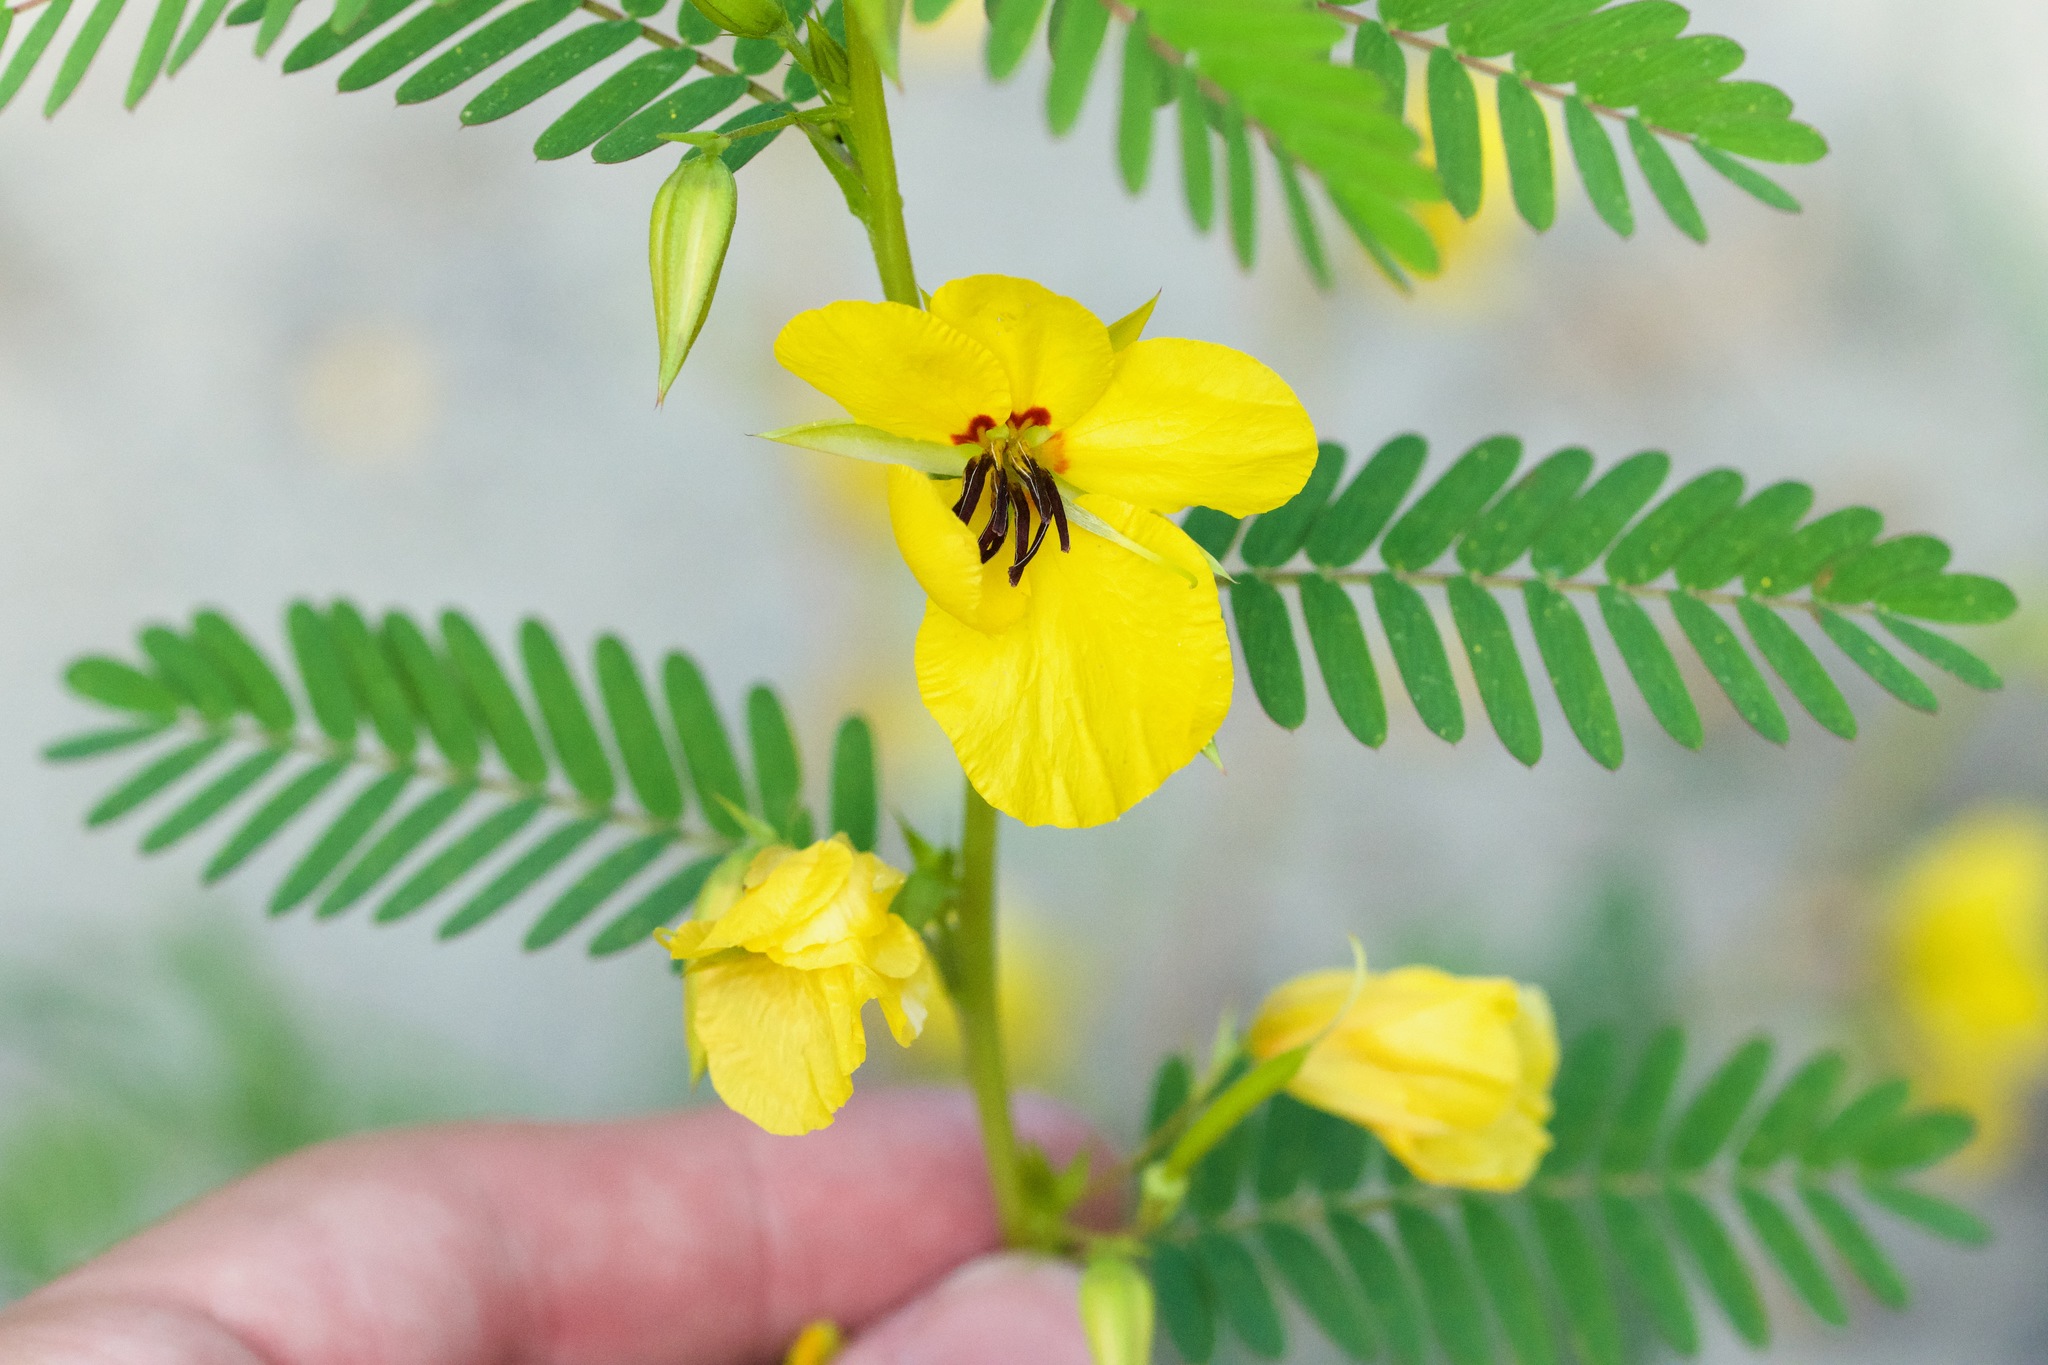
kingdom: Plantae
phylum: Tracheophyta
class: Magnoliopsida
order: Fabales
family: Fabaceae
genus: Chamaecrista
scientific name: Chamaecrista fasciculata
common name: Golden cassia
